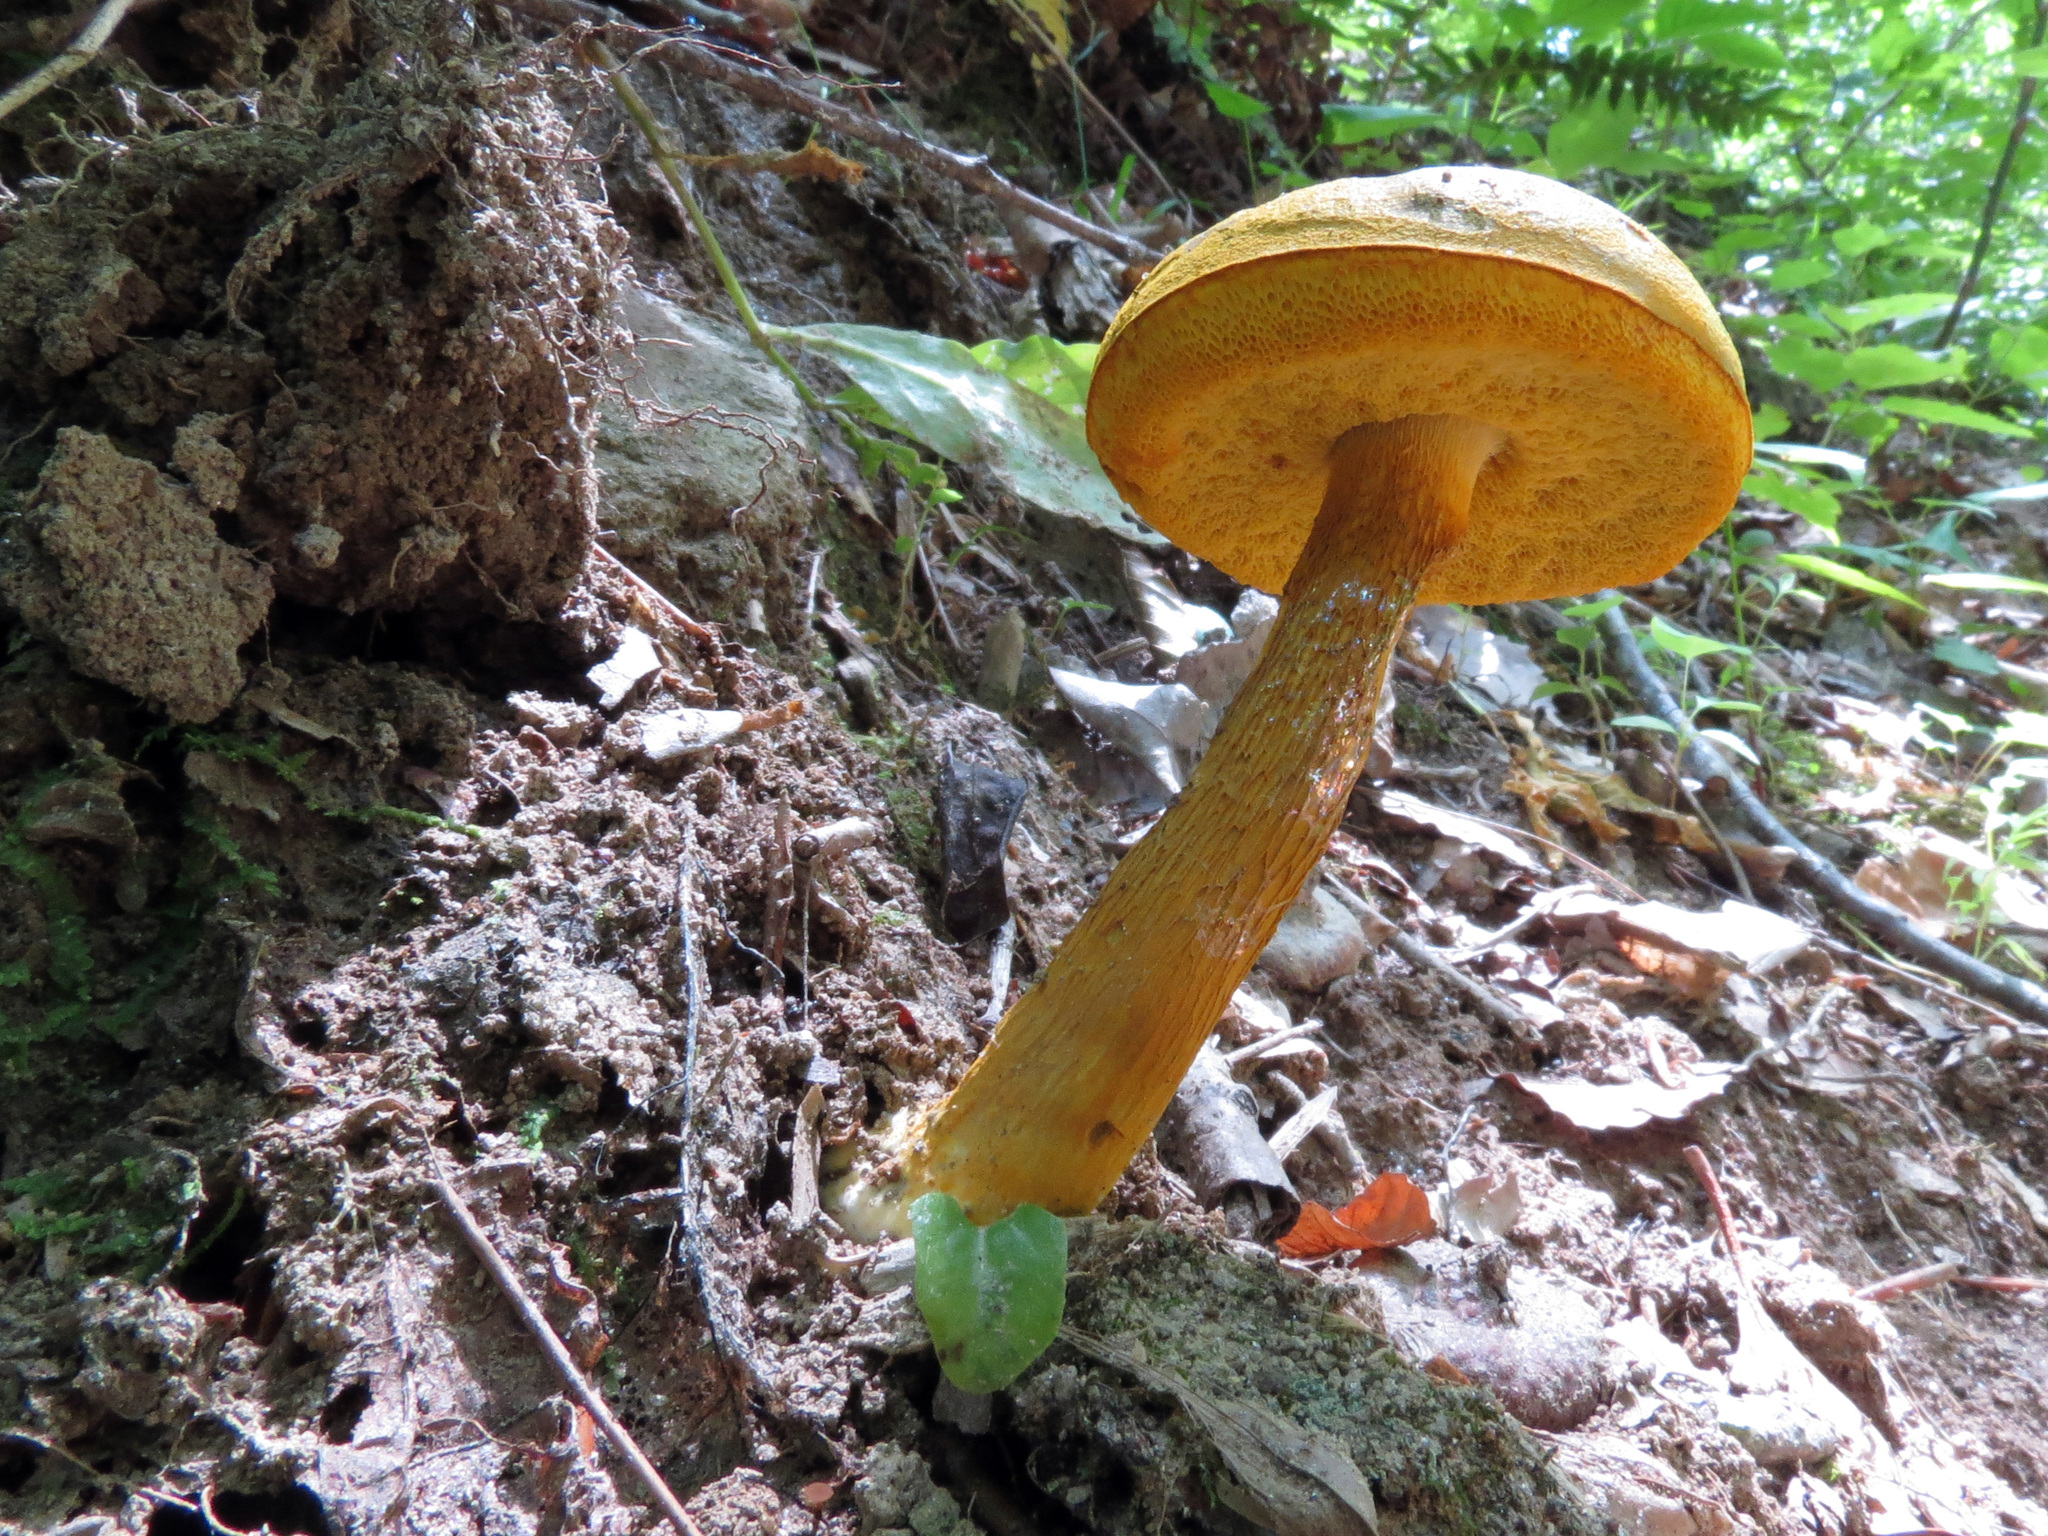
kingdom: Fungi
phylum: Basidiomycota
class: Agaricomycetes
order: Boletales
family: Boletaceae
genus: Retiboletus
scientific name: Retiboletus ornatipes
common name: Ornate-stalked bolete
